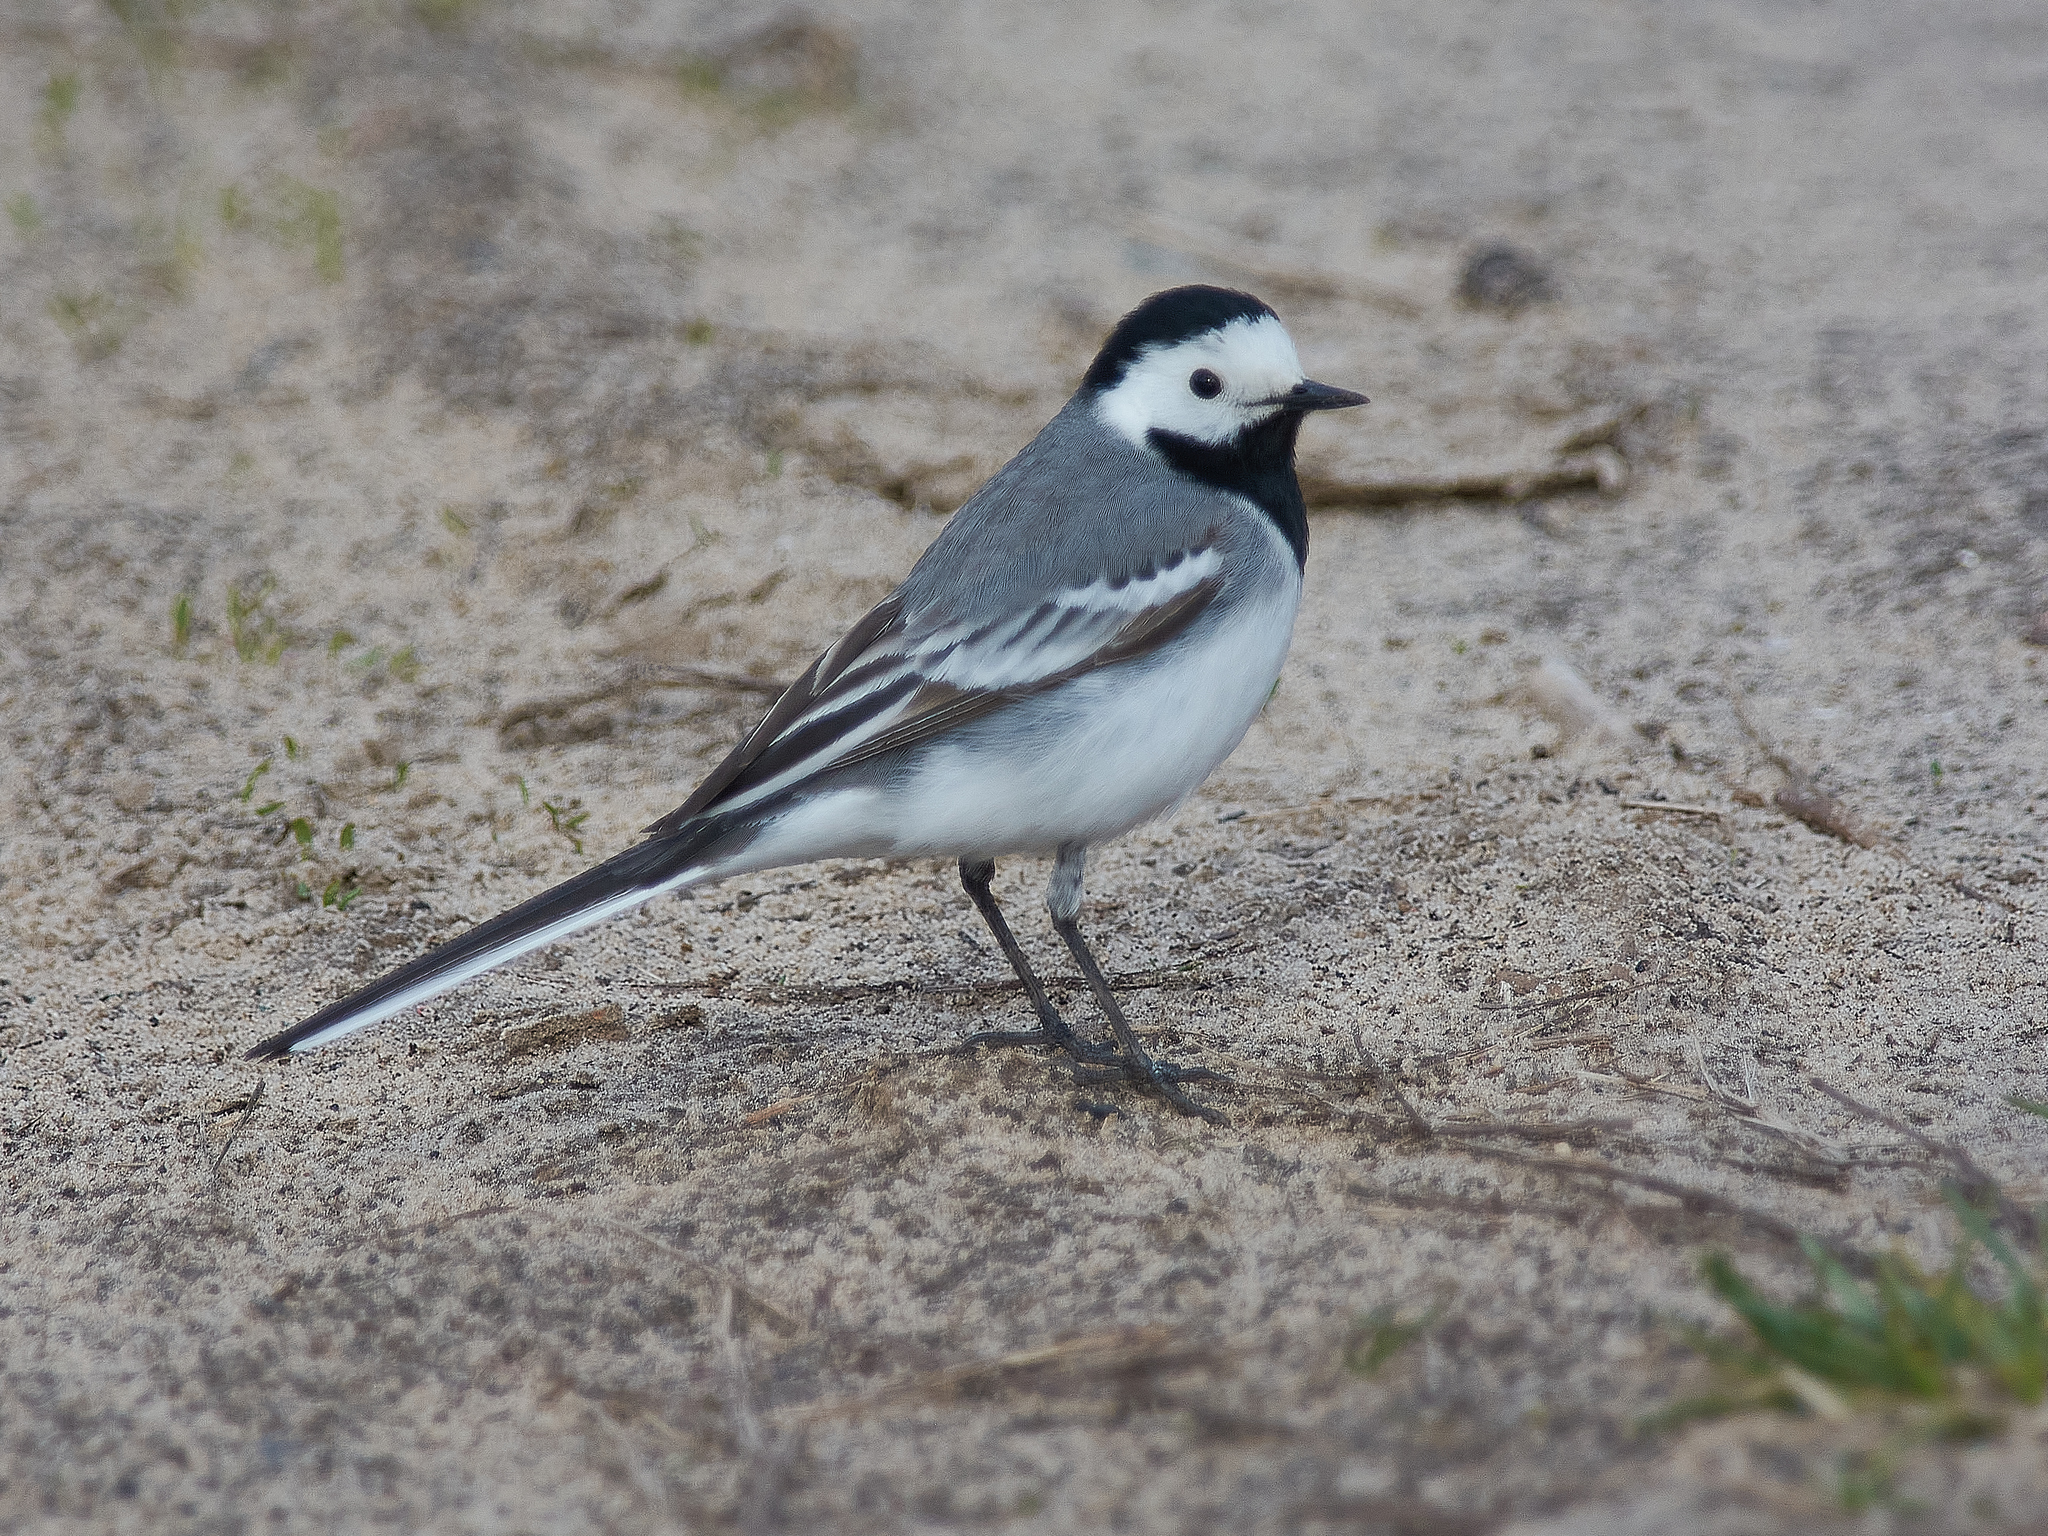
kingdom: Animalia
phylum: Chordata
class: Aves
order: Passeriformes
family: Motacillidae
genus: Motacilla
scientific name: Motacilla alba
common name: White wagtail
